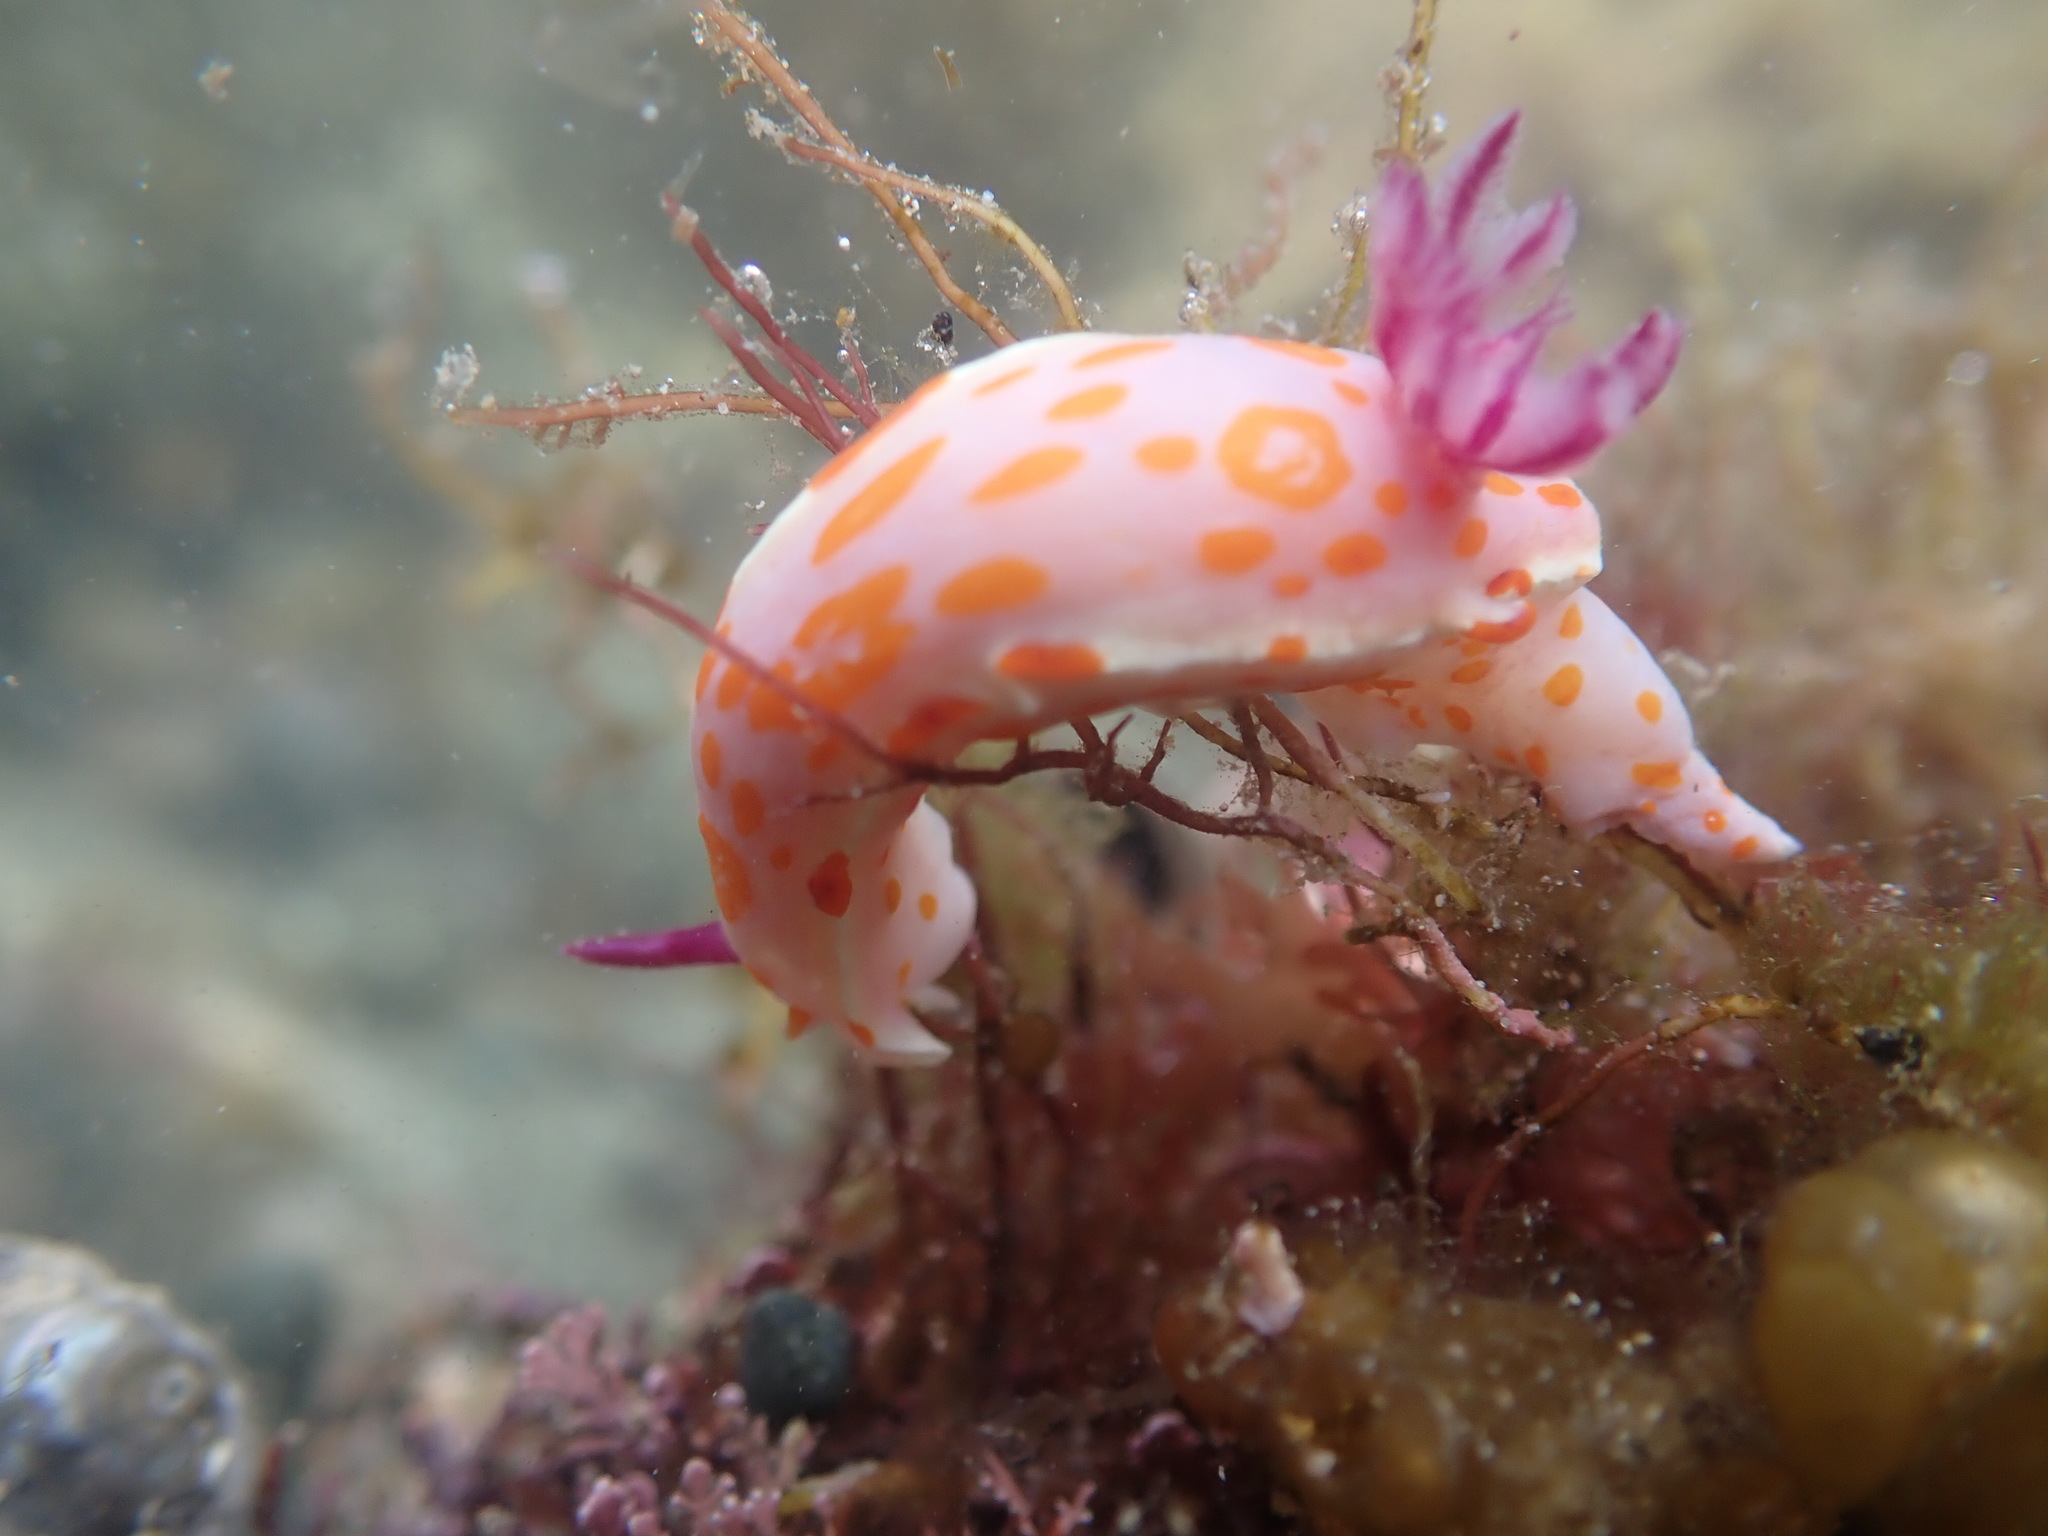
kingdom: Animalia
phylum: Mollusca
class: Gastropoda
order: Nudibranchia
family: Chromodorididae
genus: Ceratosoma
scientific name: Ceratosoma amoenum
